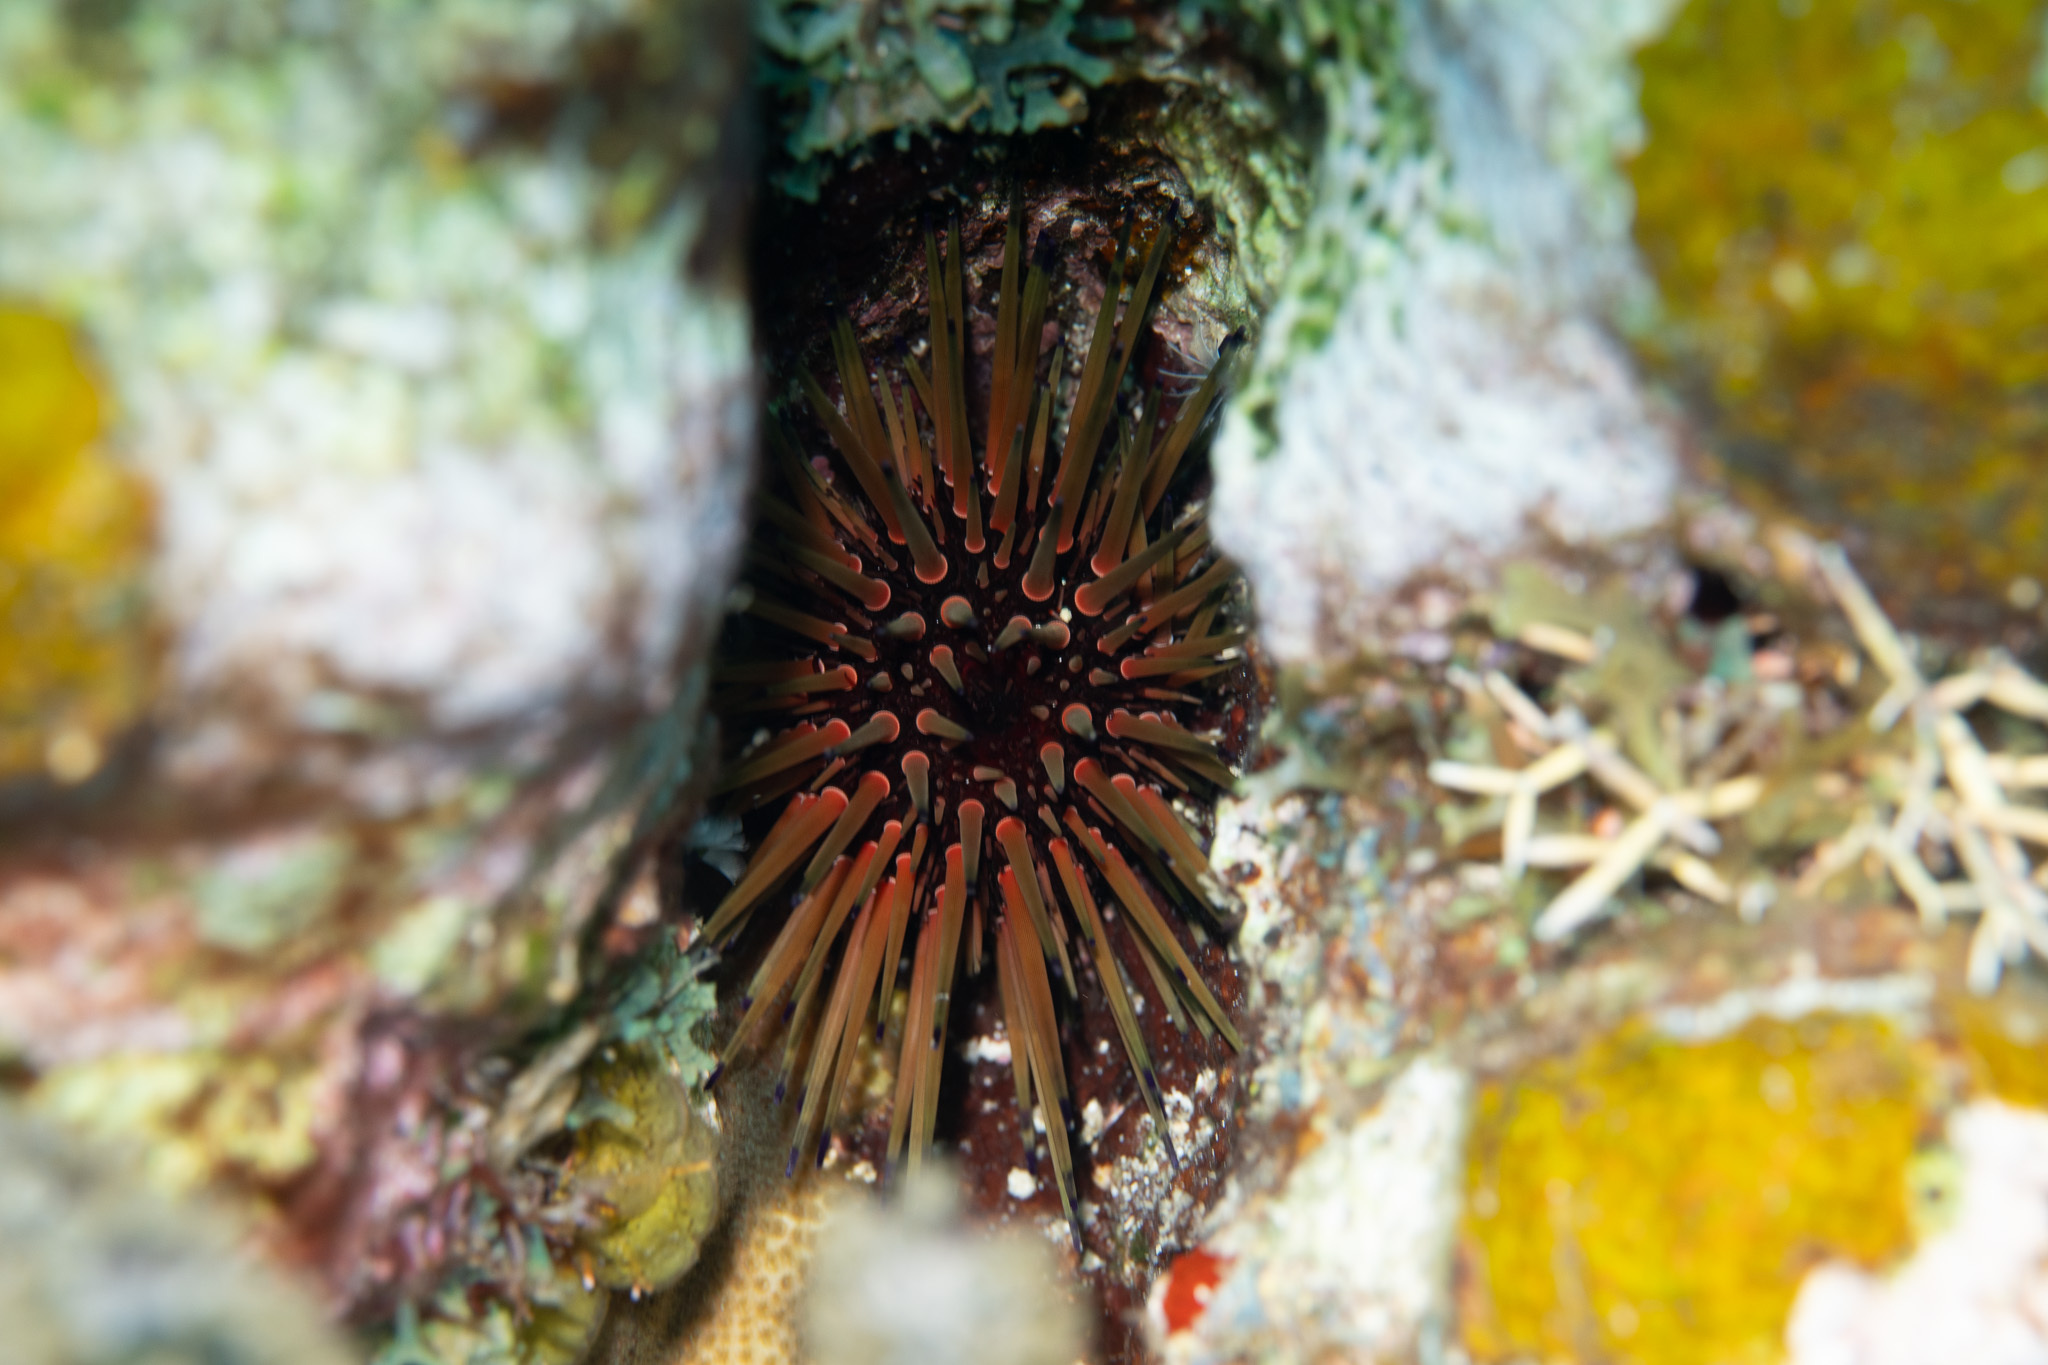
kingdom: Animalia
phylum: Echinodermata
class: Echinoidea
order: Camarodonta
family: Echinometridae
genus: Echinometra
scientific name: Echinometra viridis
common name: Reef urchin
